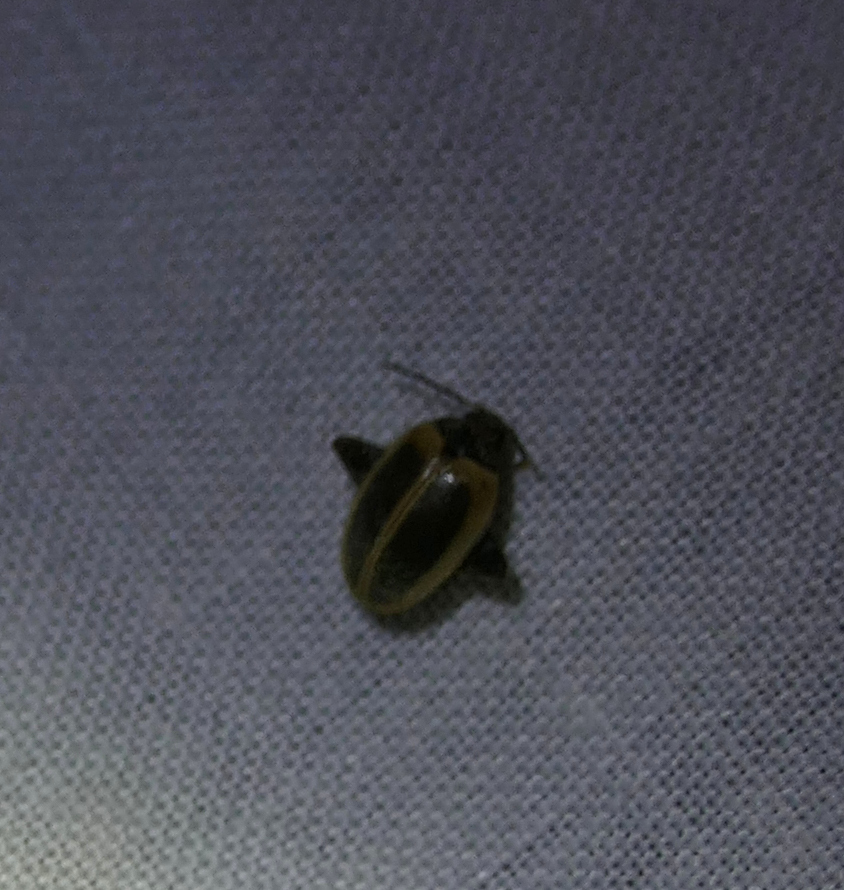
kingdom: Animalia
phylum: Arthropoda
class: Insecta
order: Coleoptera
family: Scirtidae
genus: Ora
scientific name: Ora discoidea
